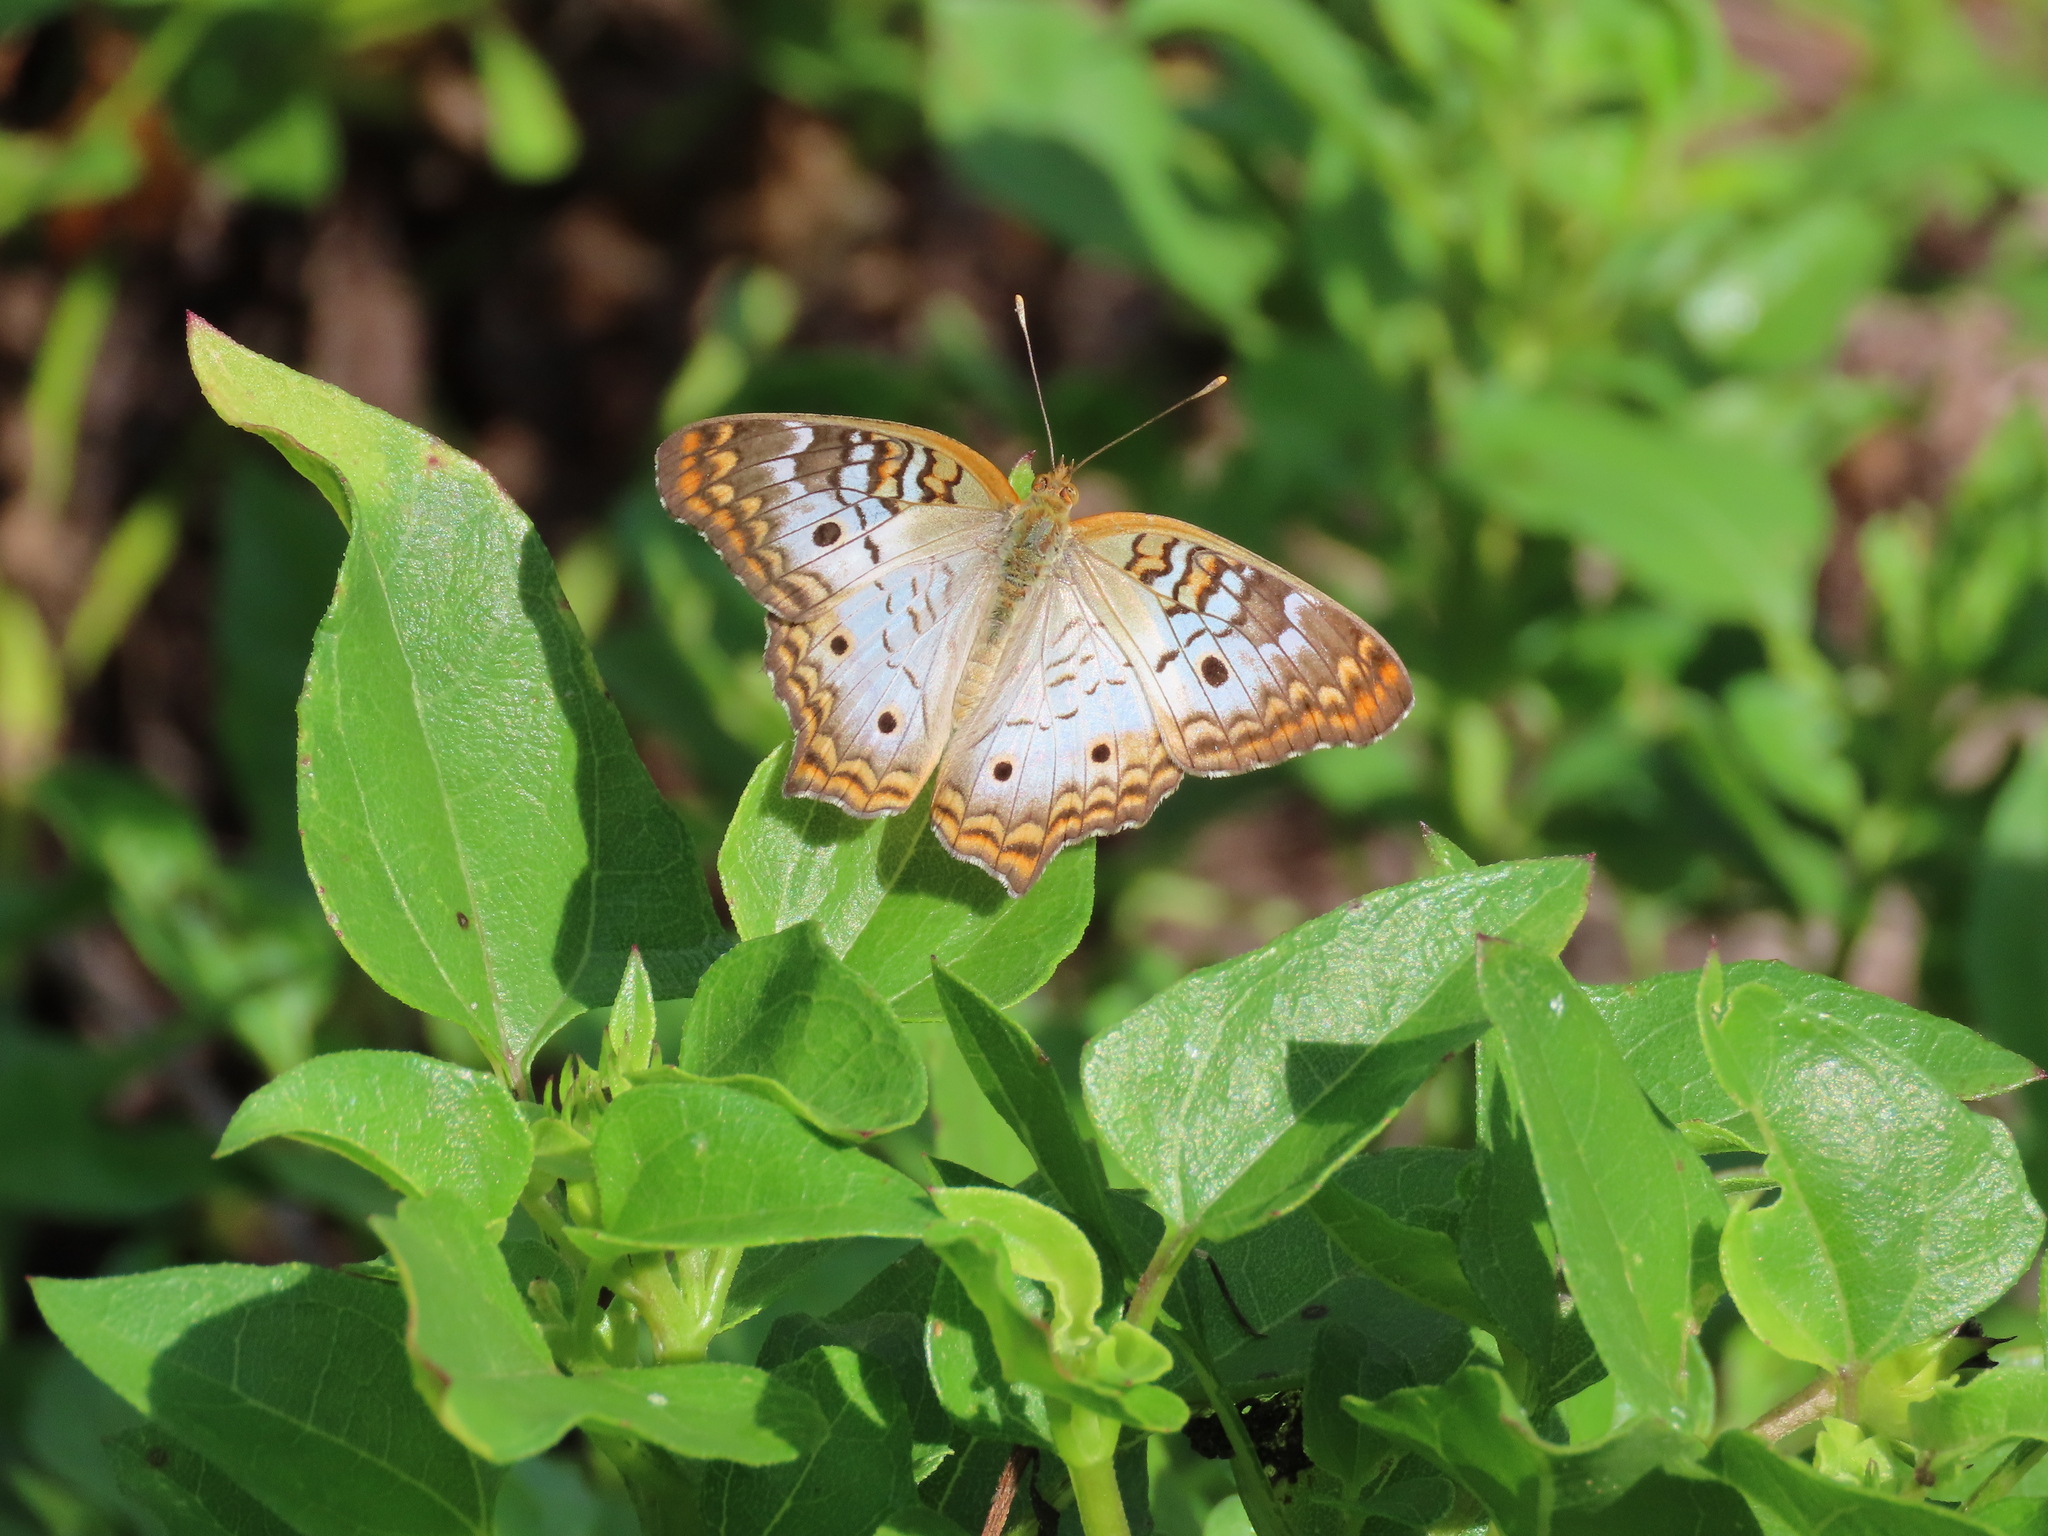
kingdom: Animalia
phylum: Arthropoda
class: Insecta
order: Lepidoptera
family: Nymphalidae
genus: Anartia
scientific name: Anartia jatrophae
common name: White peacock
